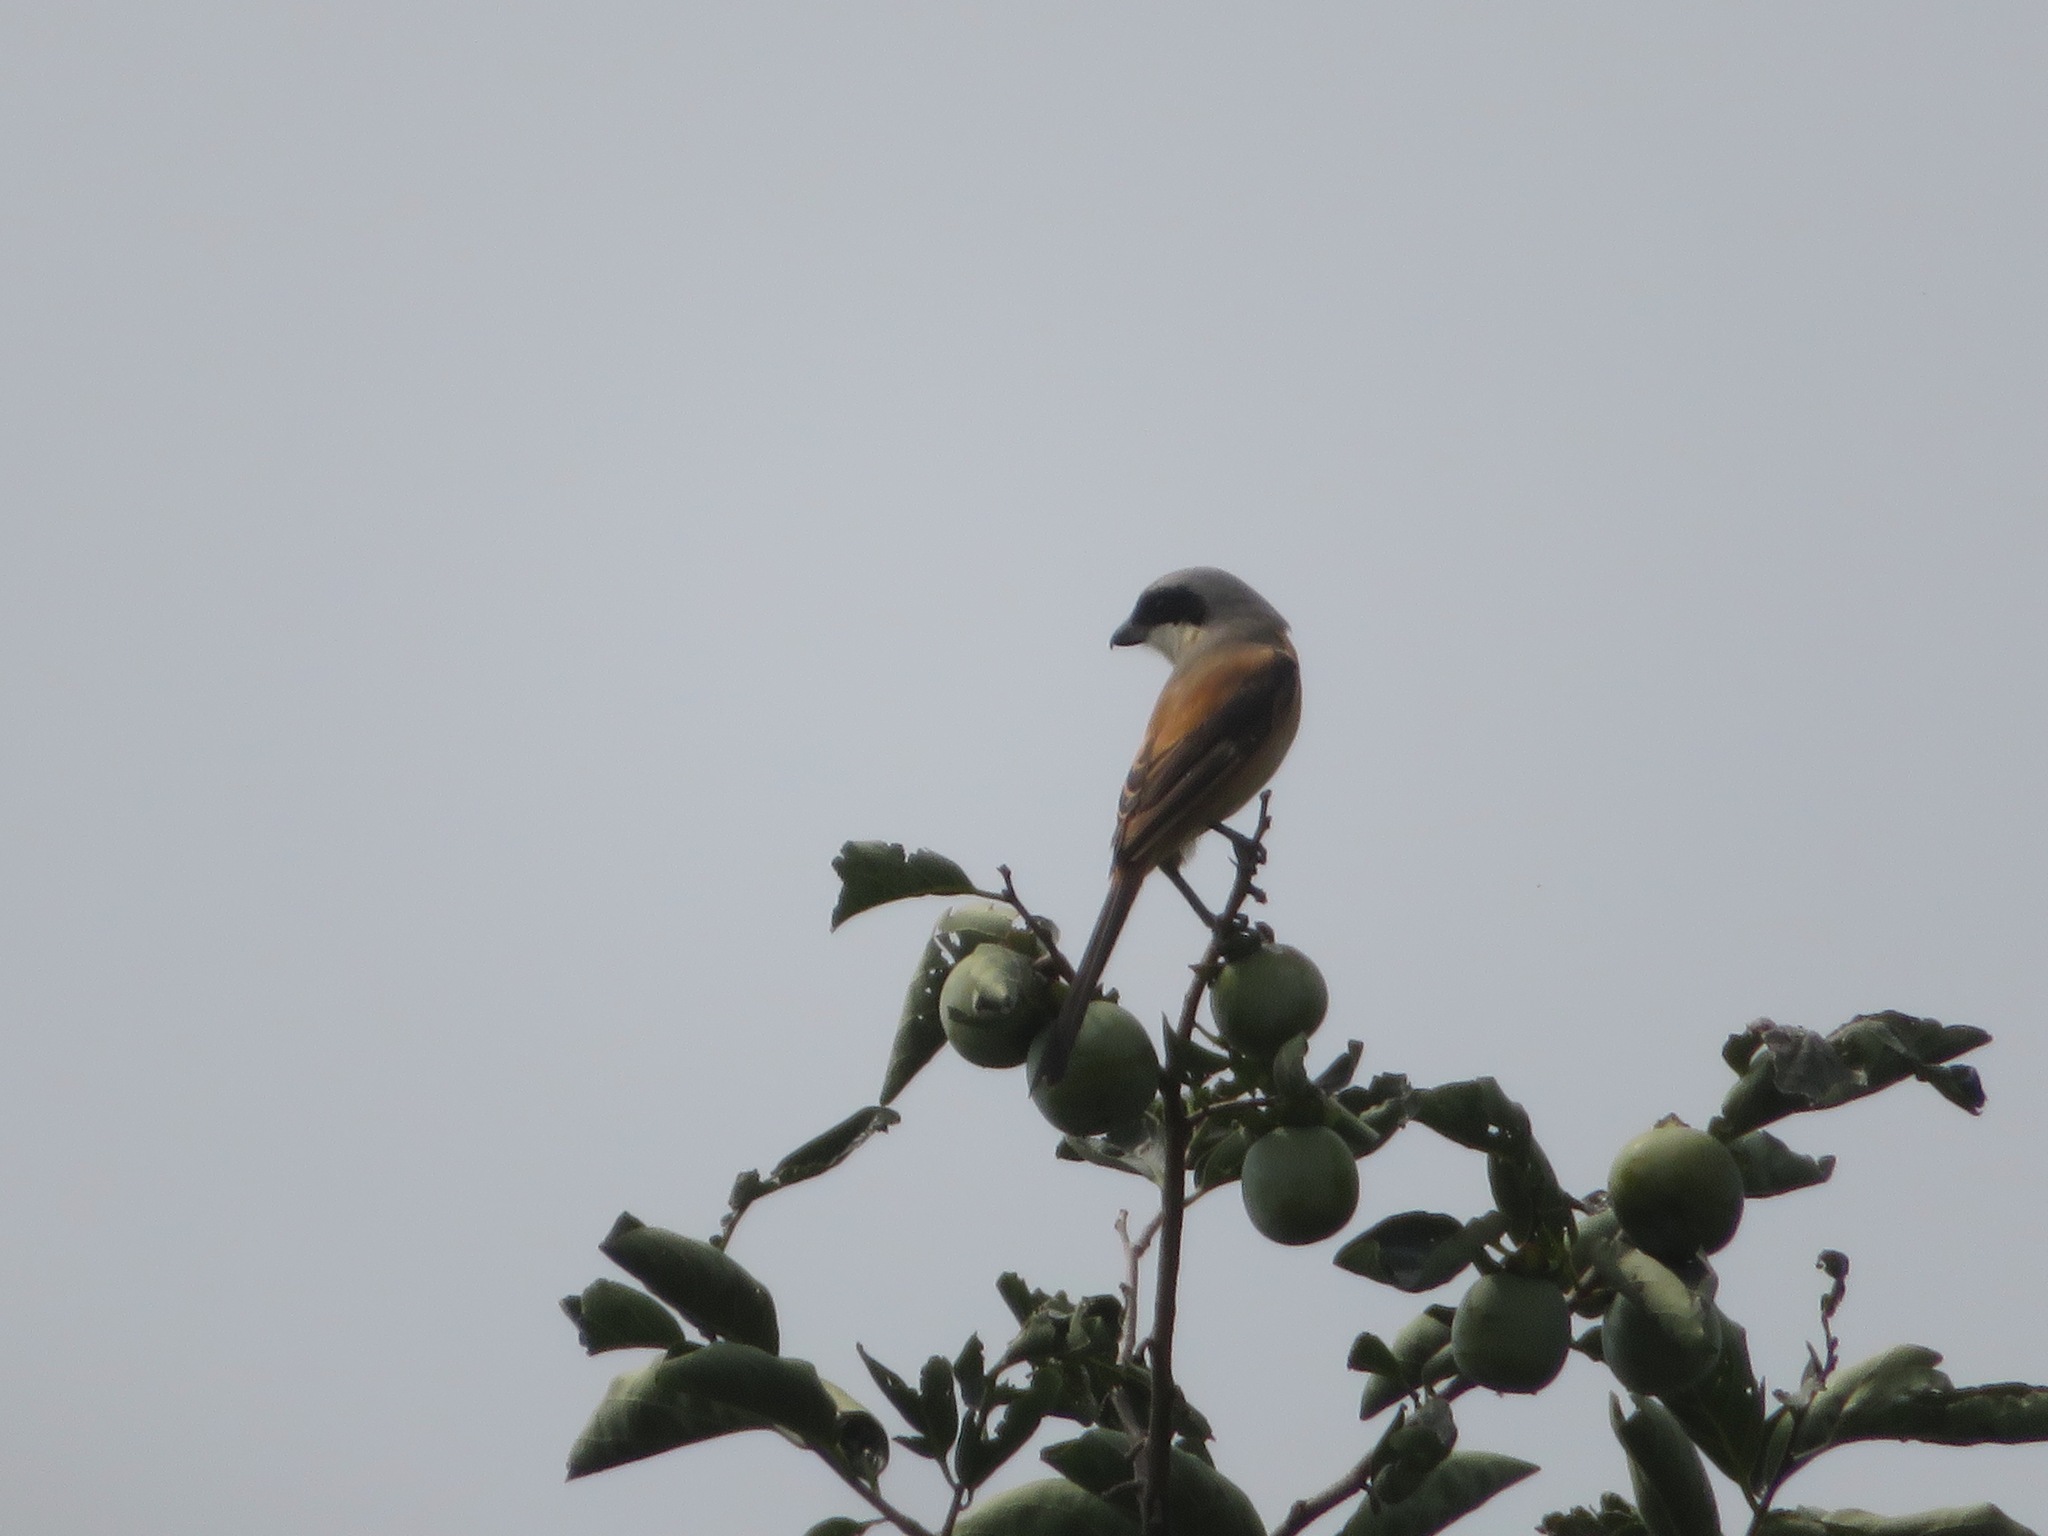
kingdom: Animalia
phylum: Chordata
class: Aves
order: Passeriformes
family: Laniidae
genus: Lanius
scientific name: Lanius schach
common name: Long-tailed shrike
